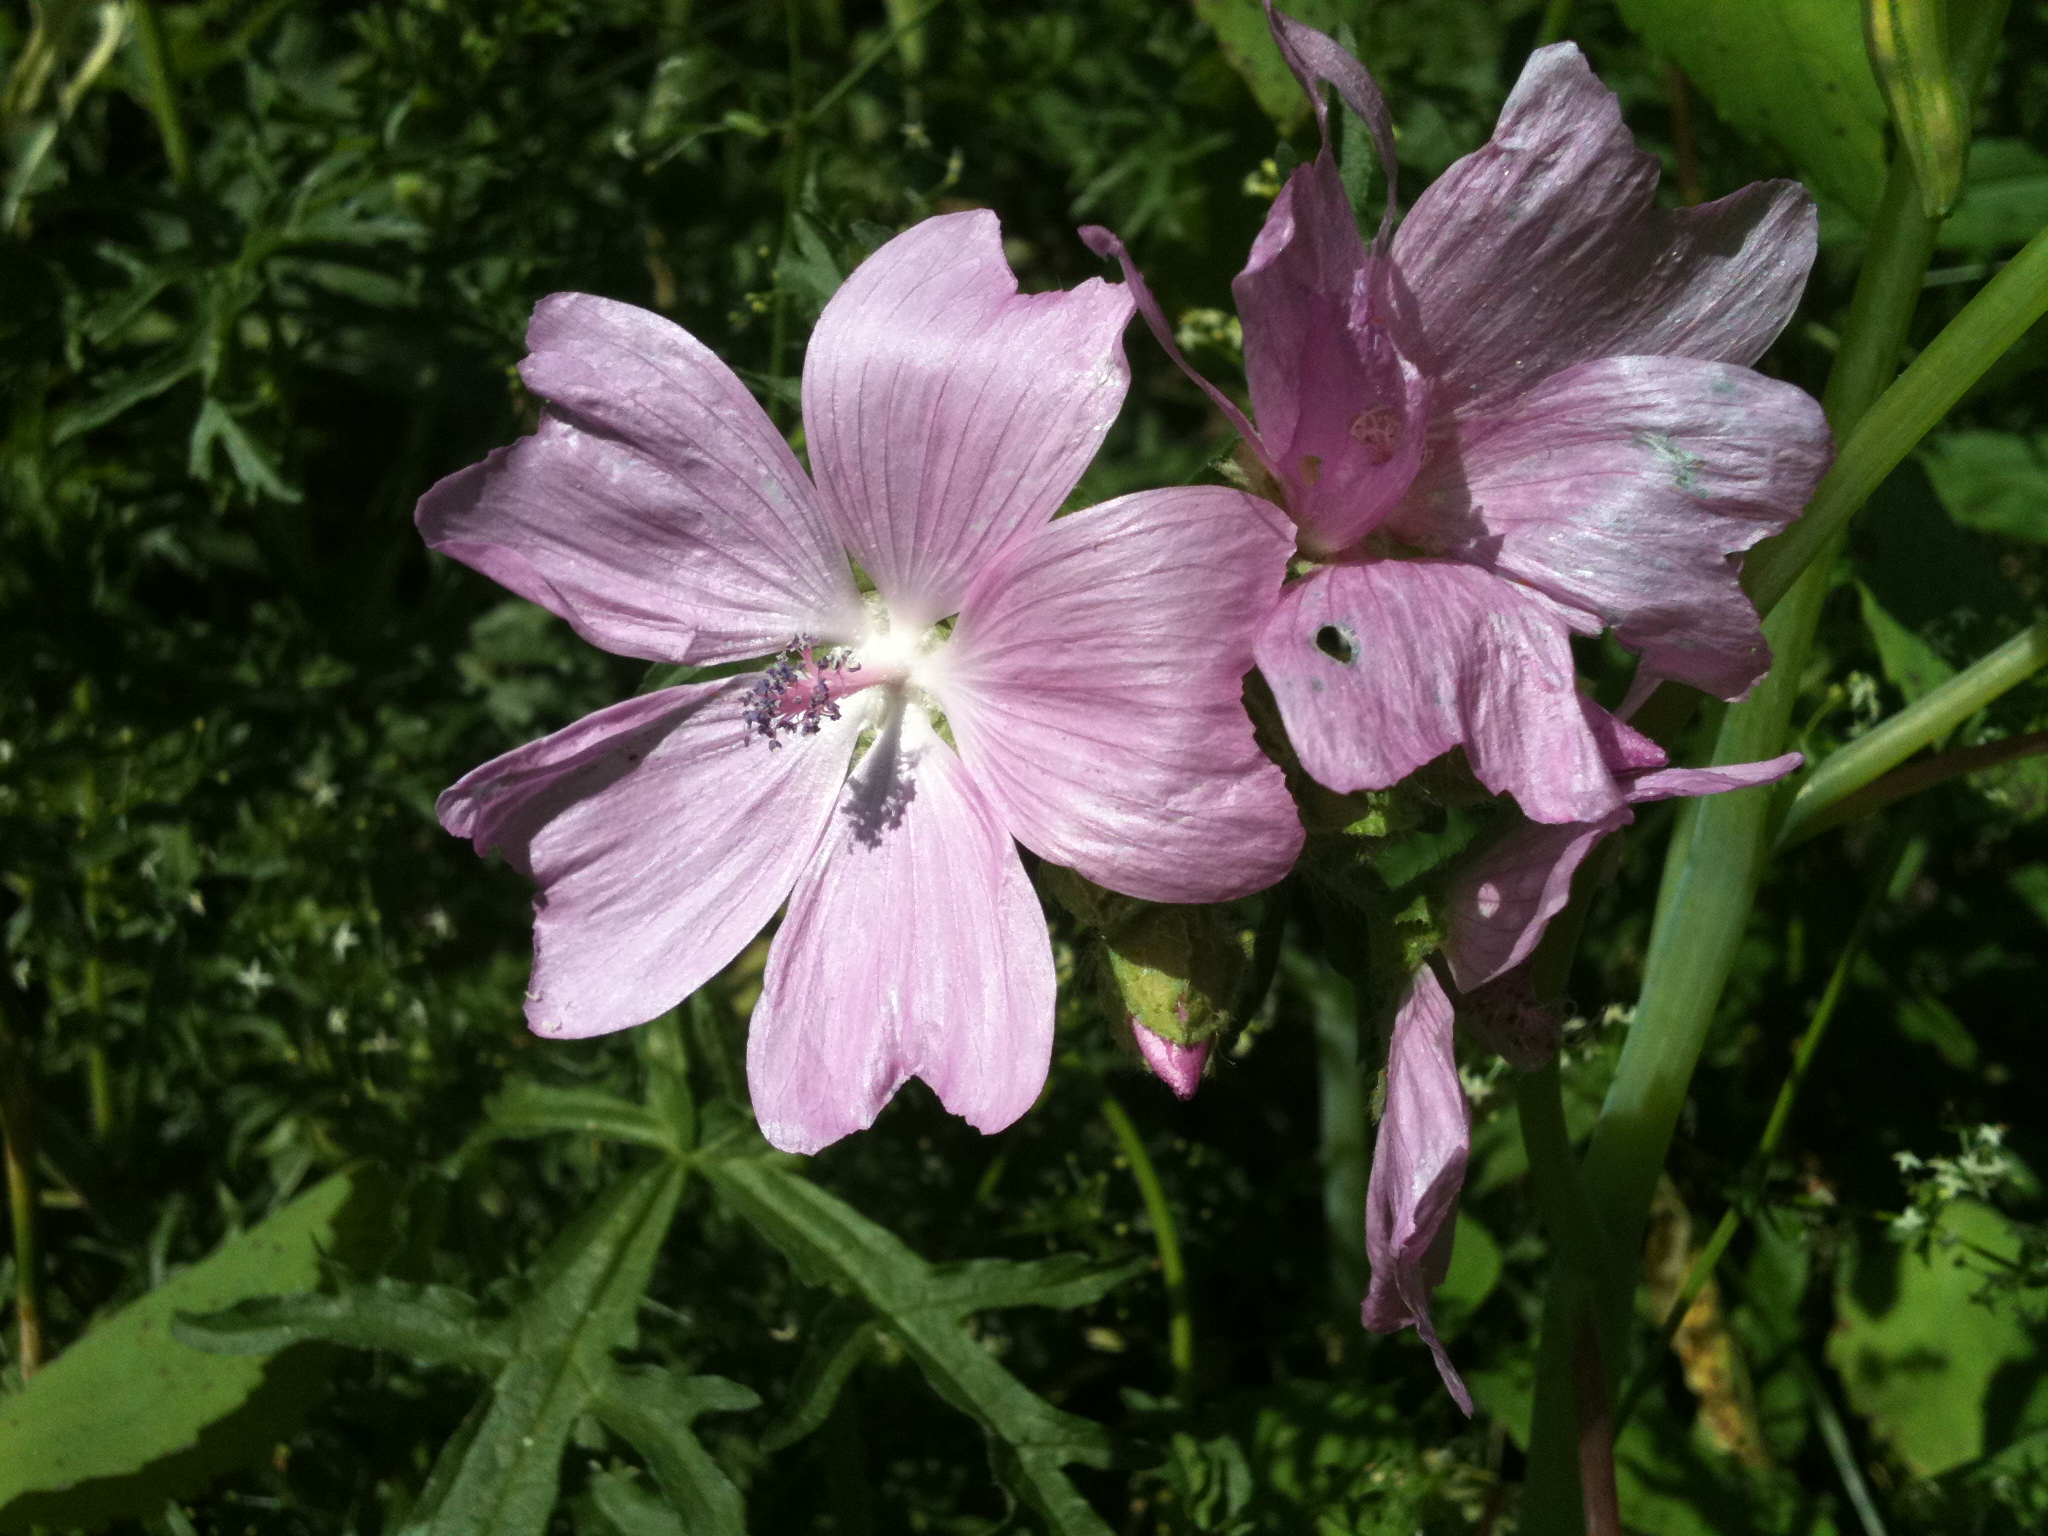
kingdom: Plantae
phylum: Tracheophyta
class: Magnoliopsida
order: Malvales
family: Malvaceae
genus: Malva
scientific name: Malva moschata
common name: Musk mallow
